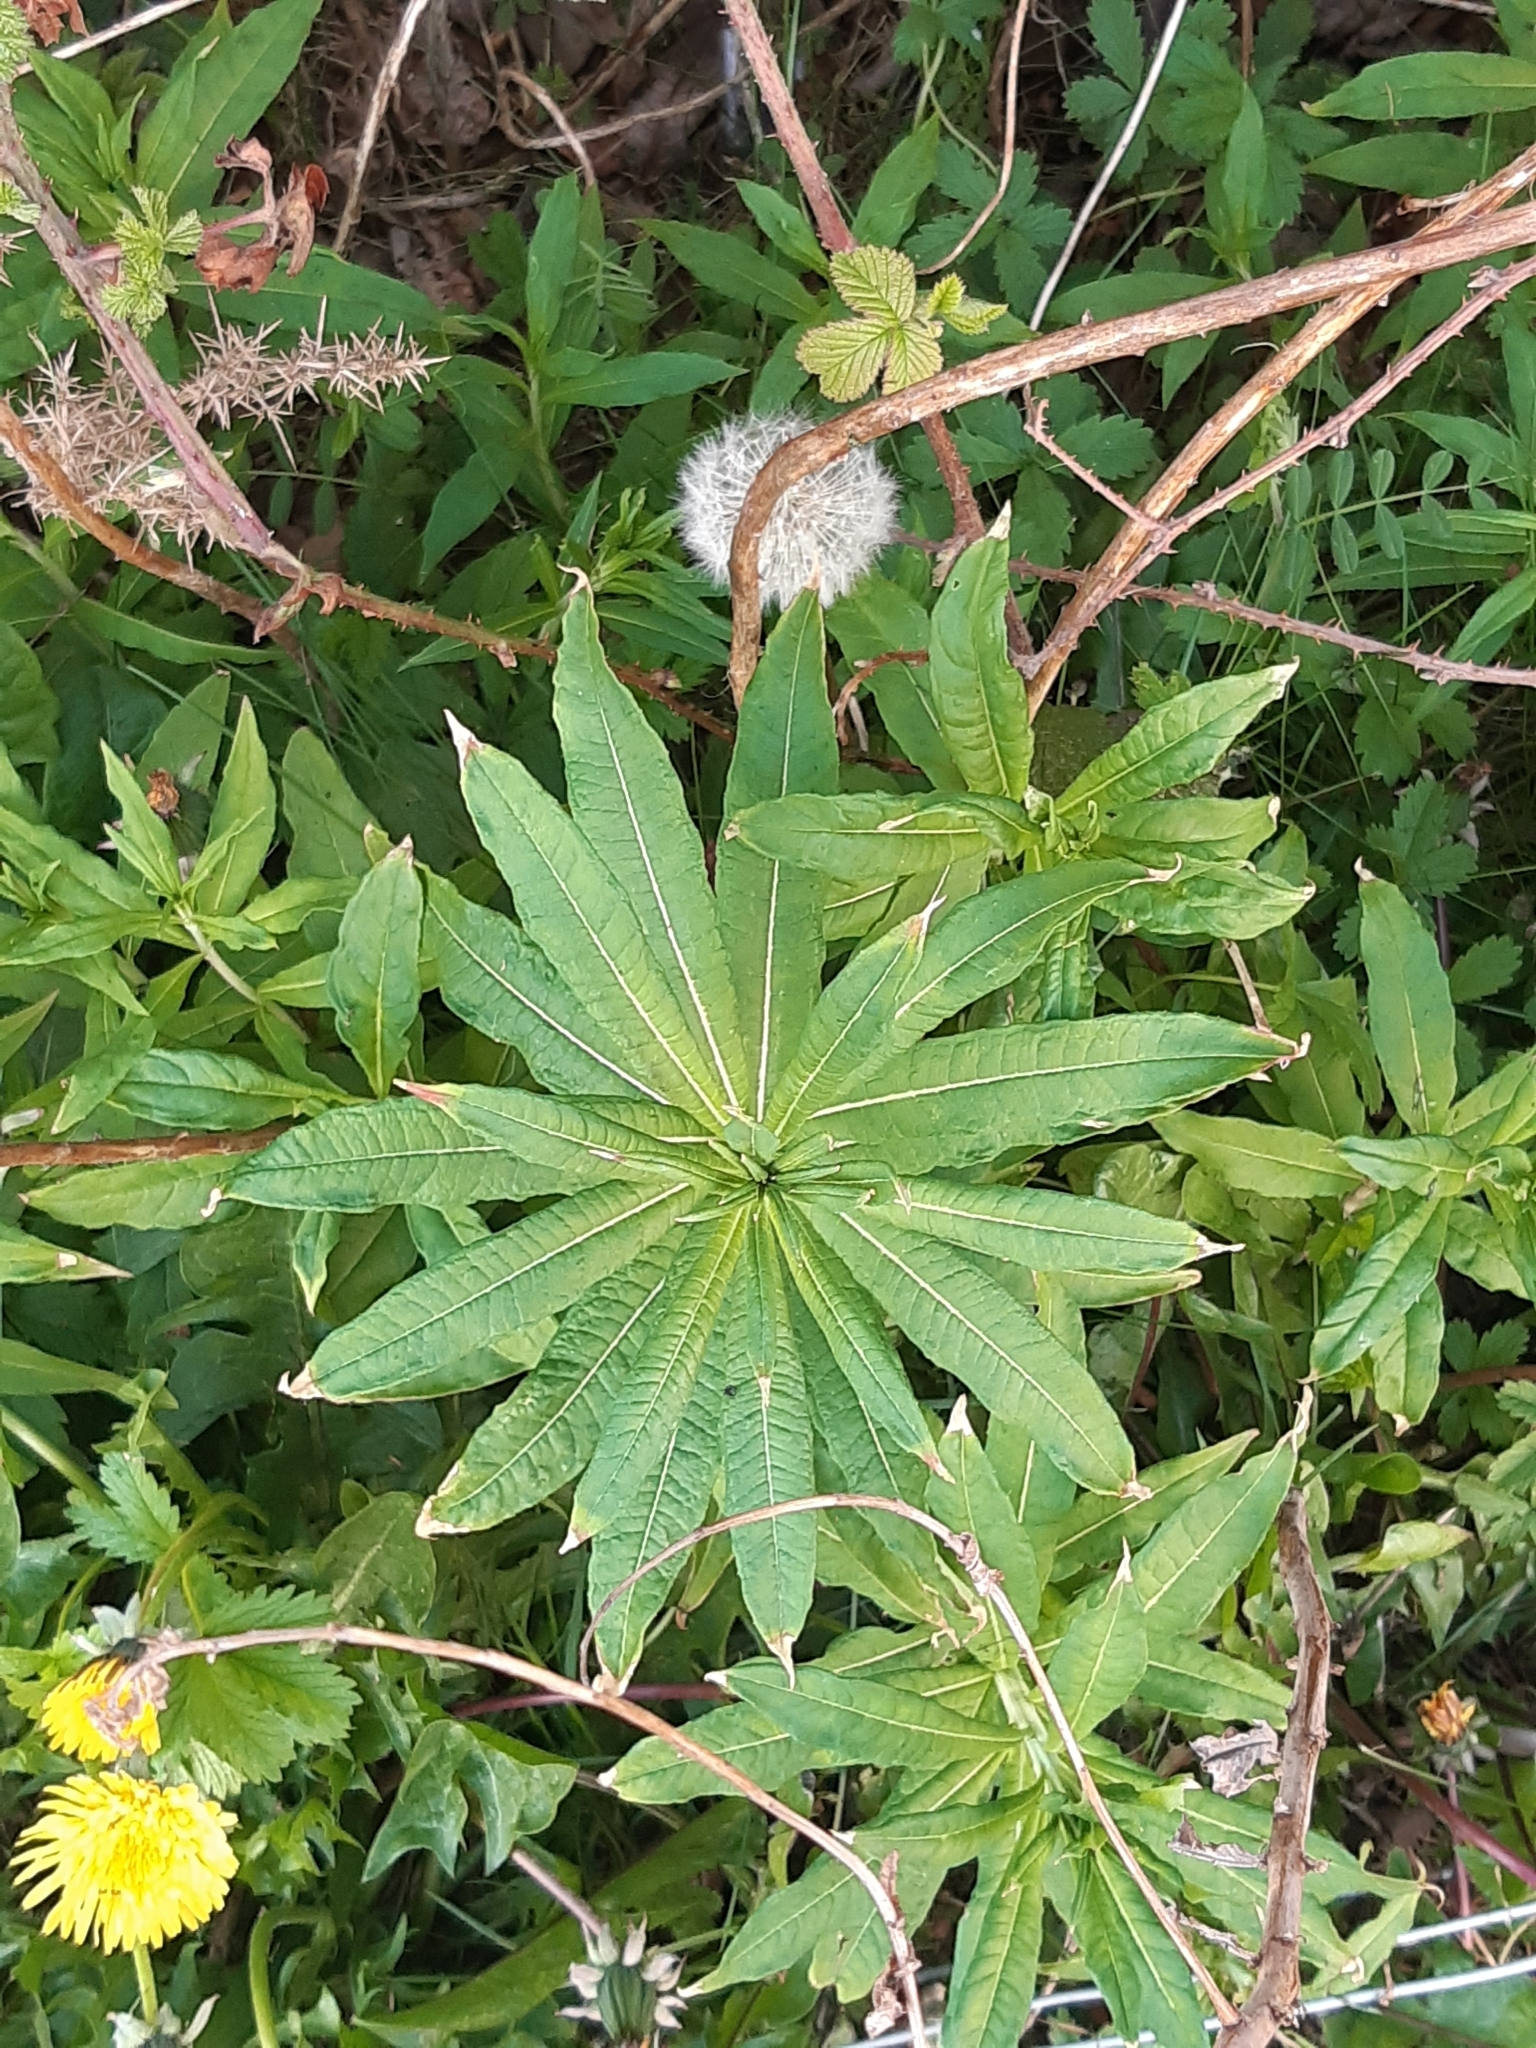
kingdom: Plantae
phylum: Tracheophyta
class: Magnoliopsida
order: Myrtales
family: Onagraceae
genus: Chamaenerion
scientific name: Chamaenerion angustifolium
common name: Fireweed
